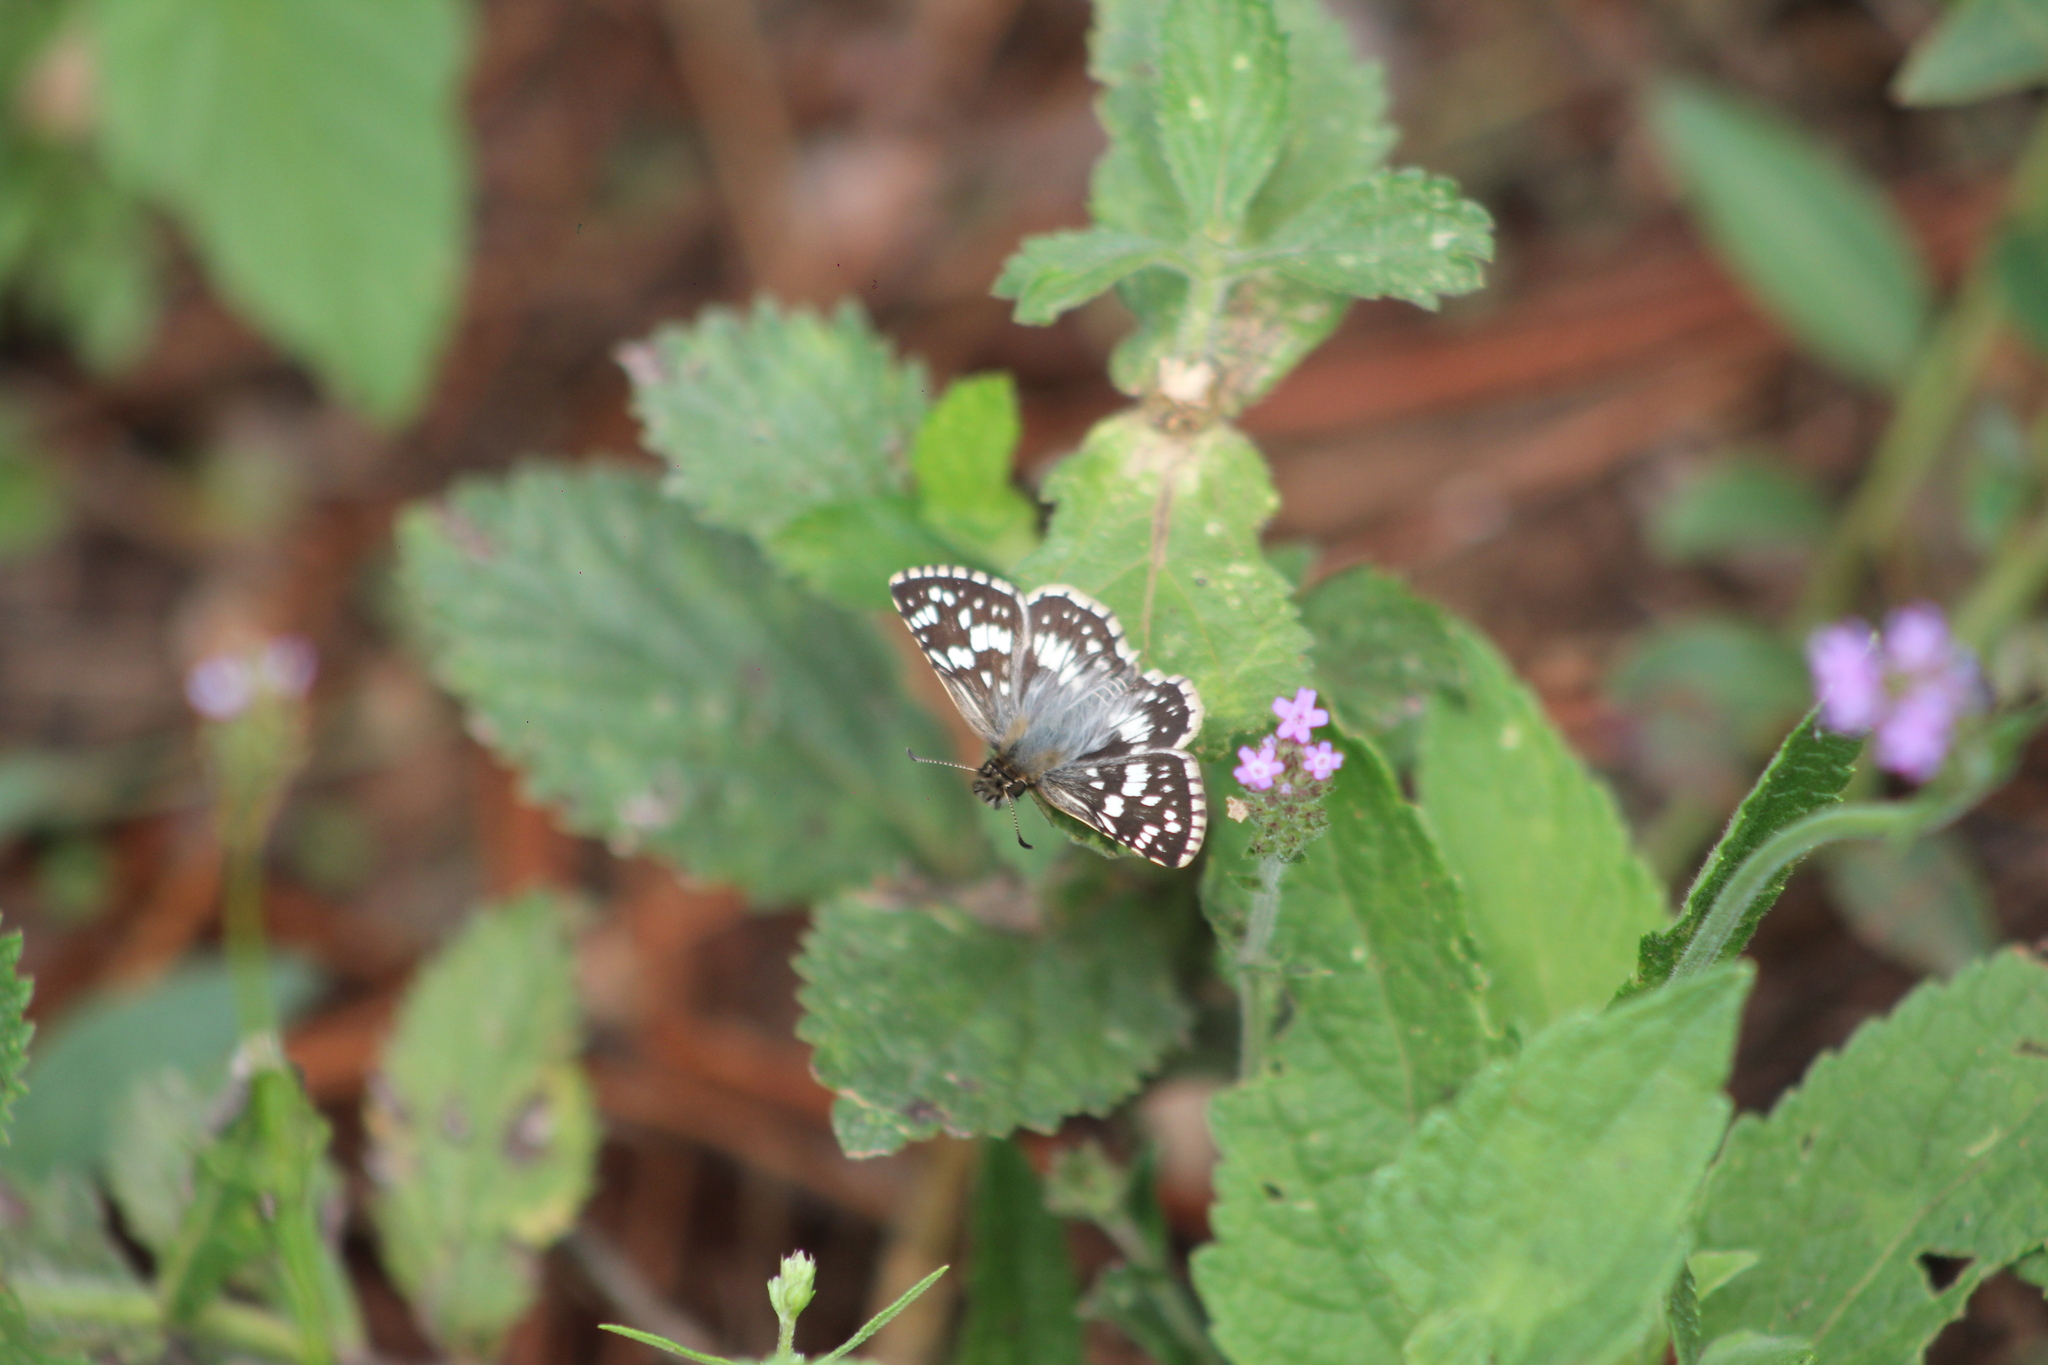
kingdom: Animalia
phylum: Arthropoda
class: Insecta
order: Lepidoptera
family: Hesperiidae
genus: Burnsius
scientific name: Burnsius orcynoides
